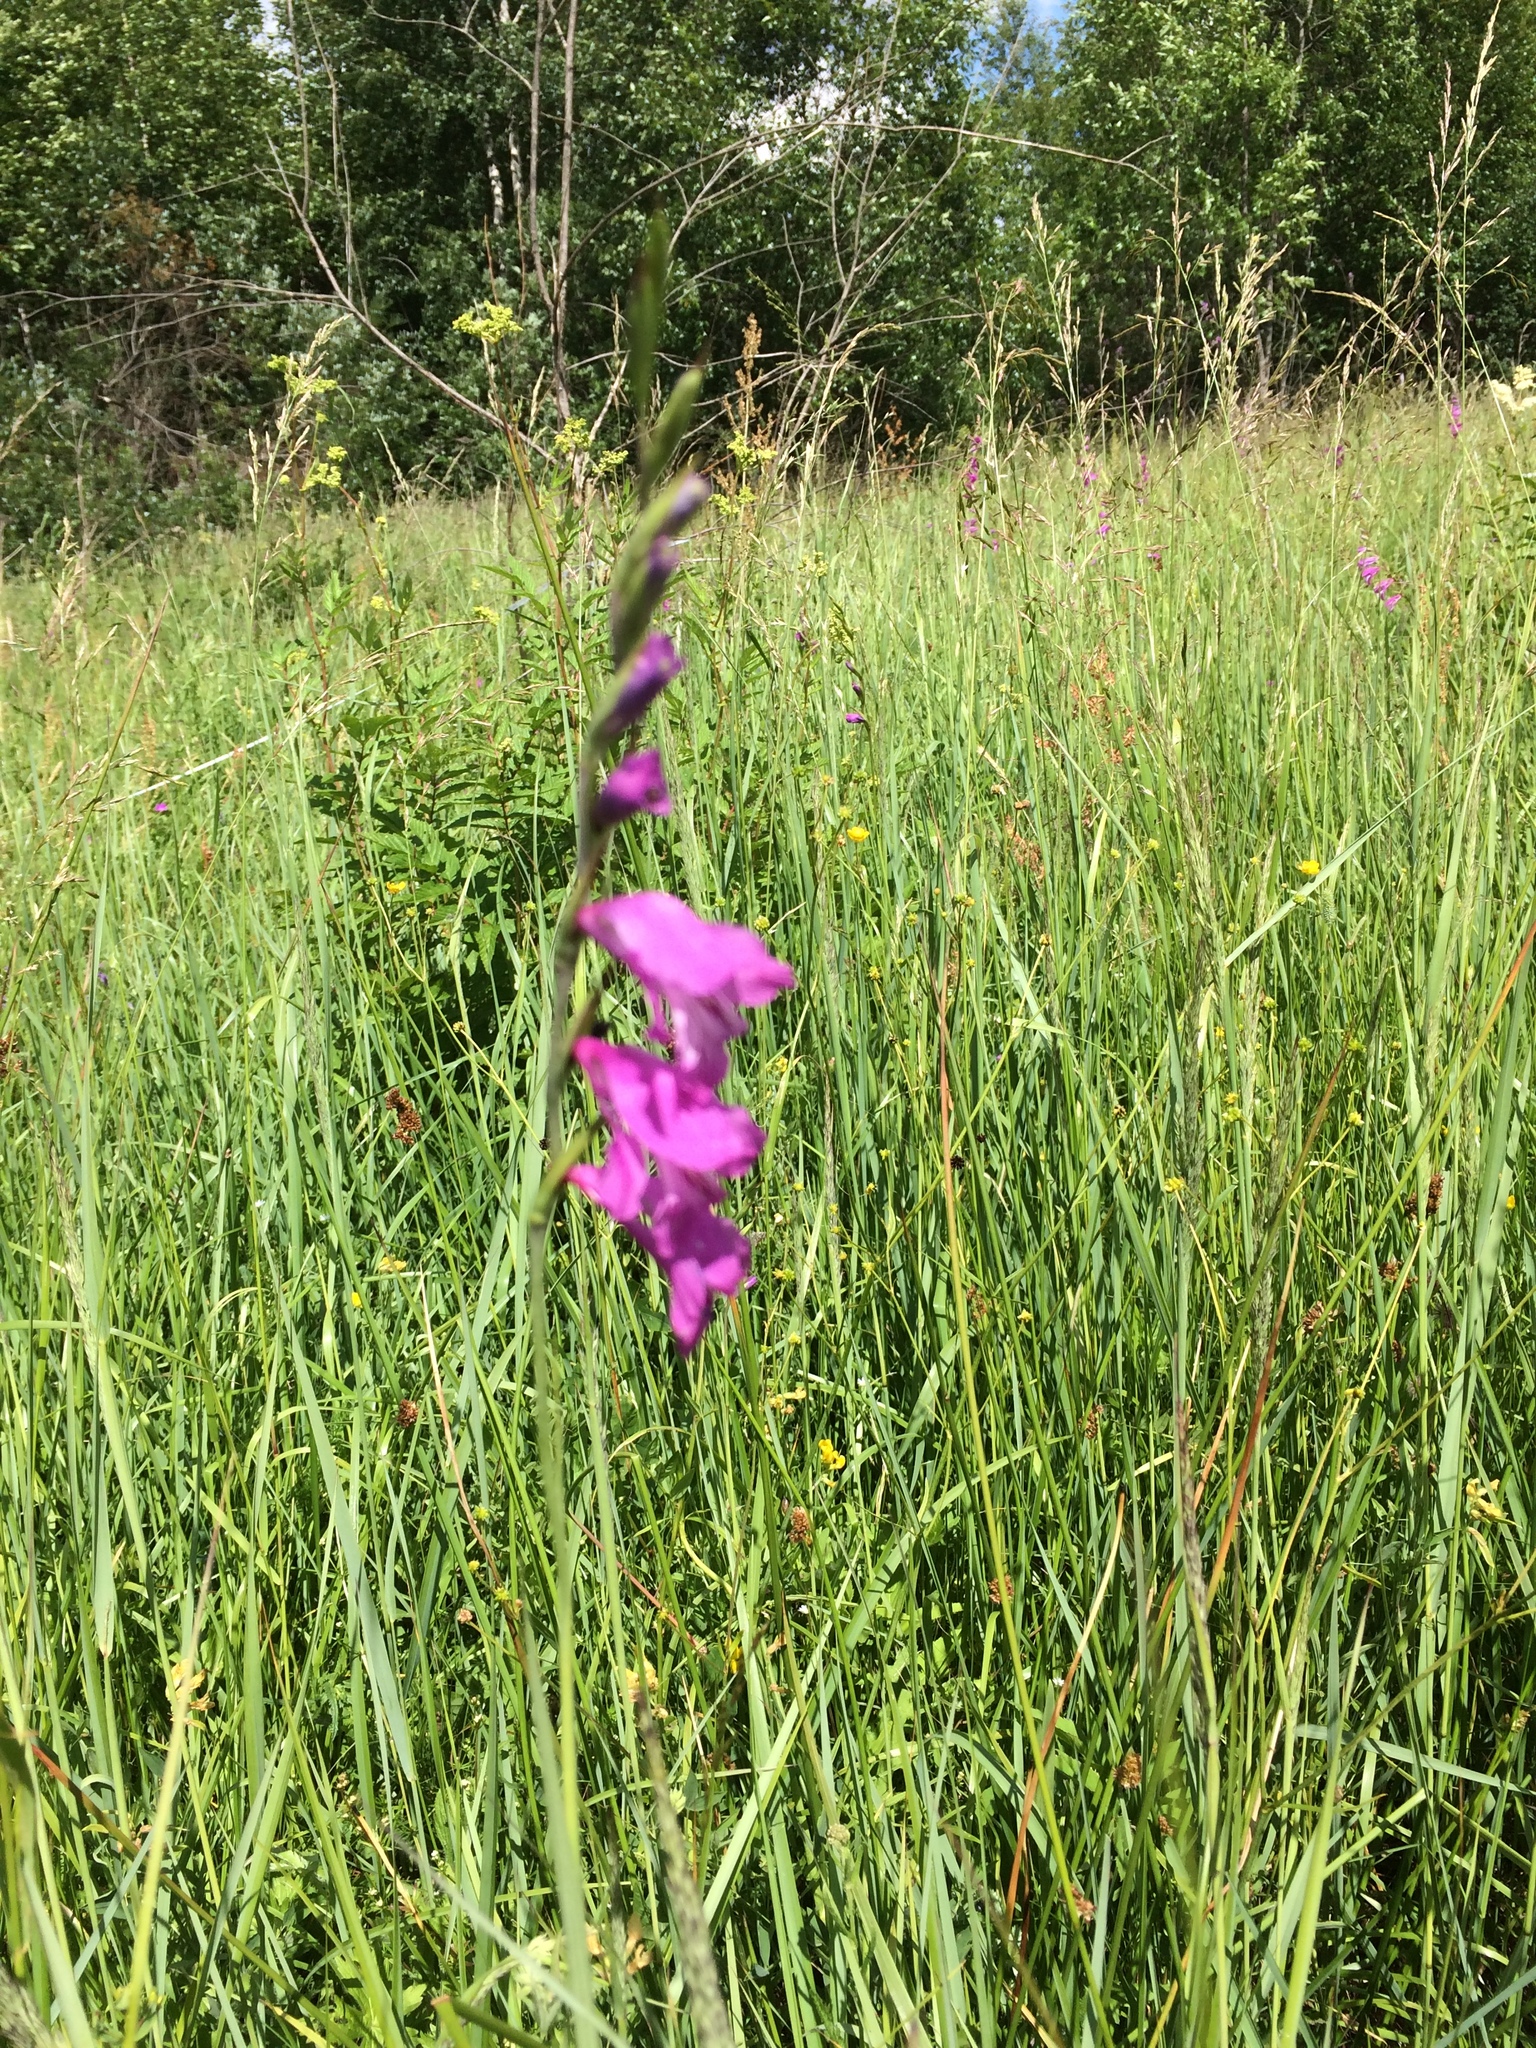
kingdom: Plantae
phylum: Tracheophyta
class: Liliopsida
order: Asparagales
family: Iridaceae
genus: Gladiolus
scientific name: Gladiolus imbricatus
